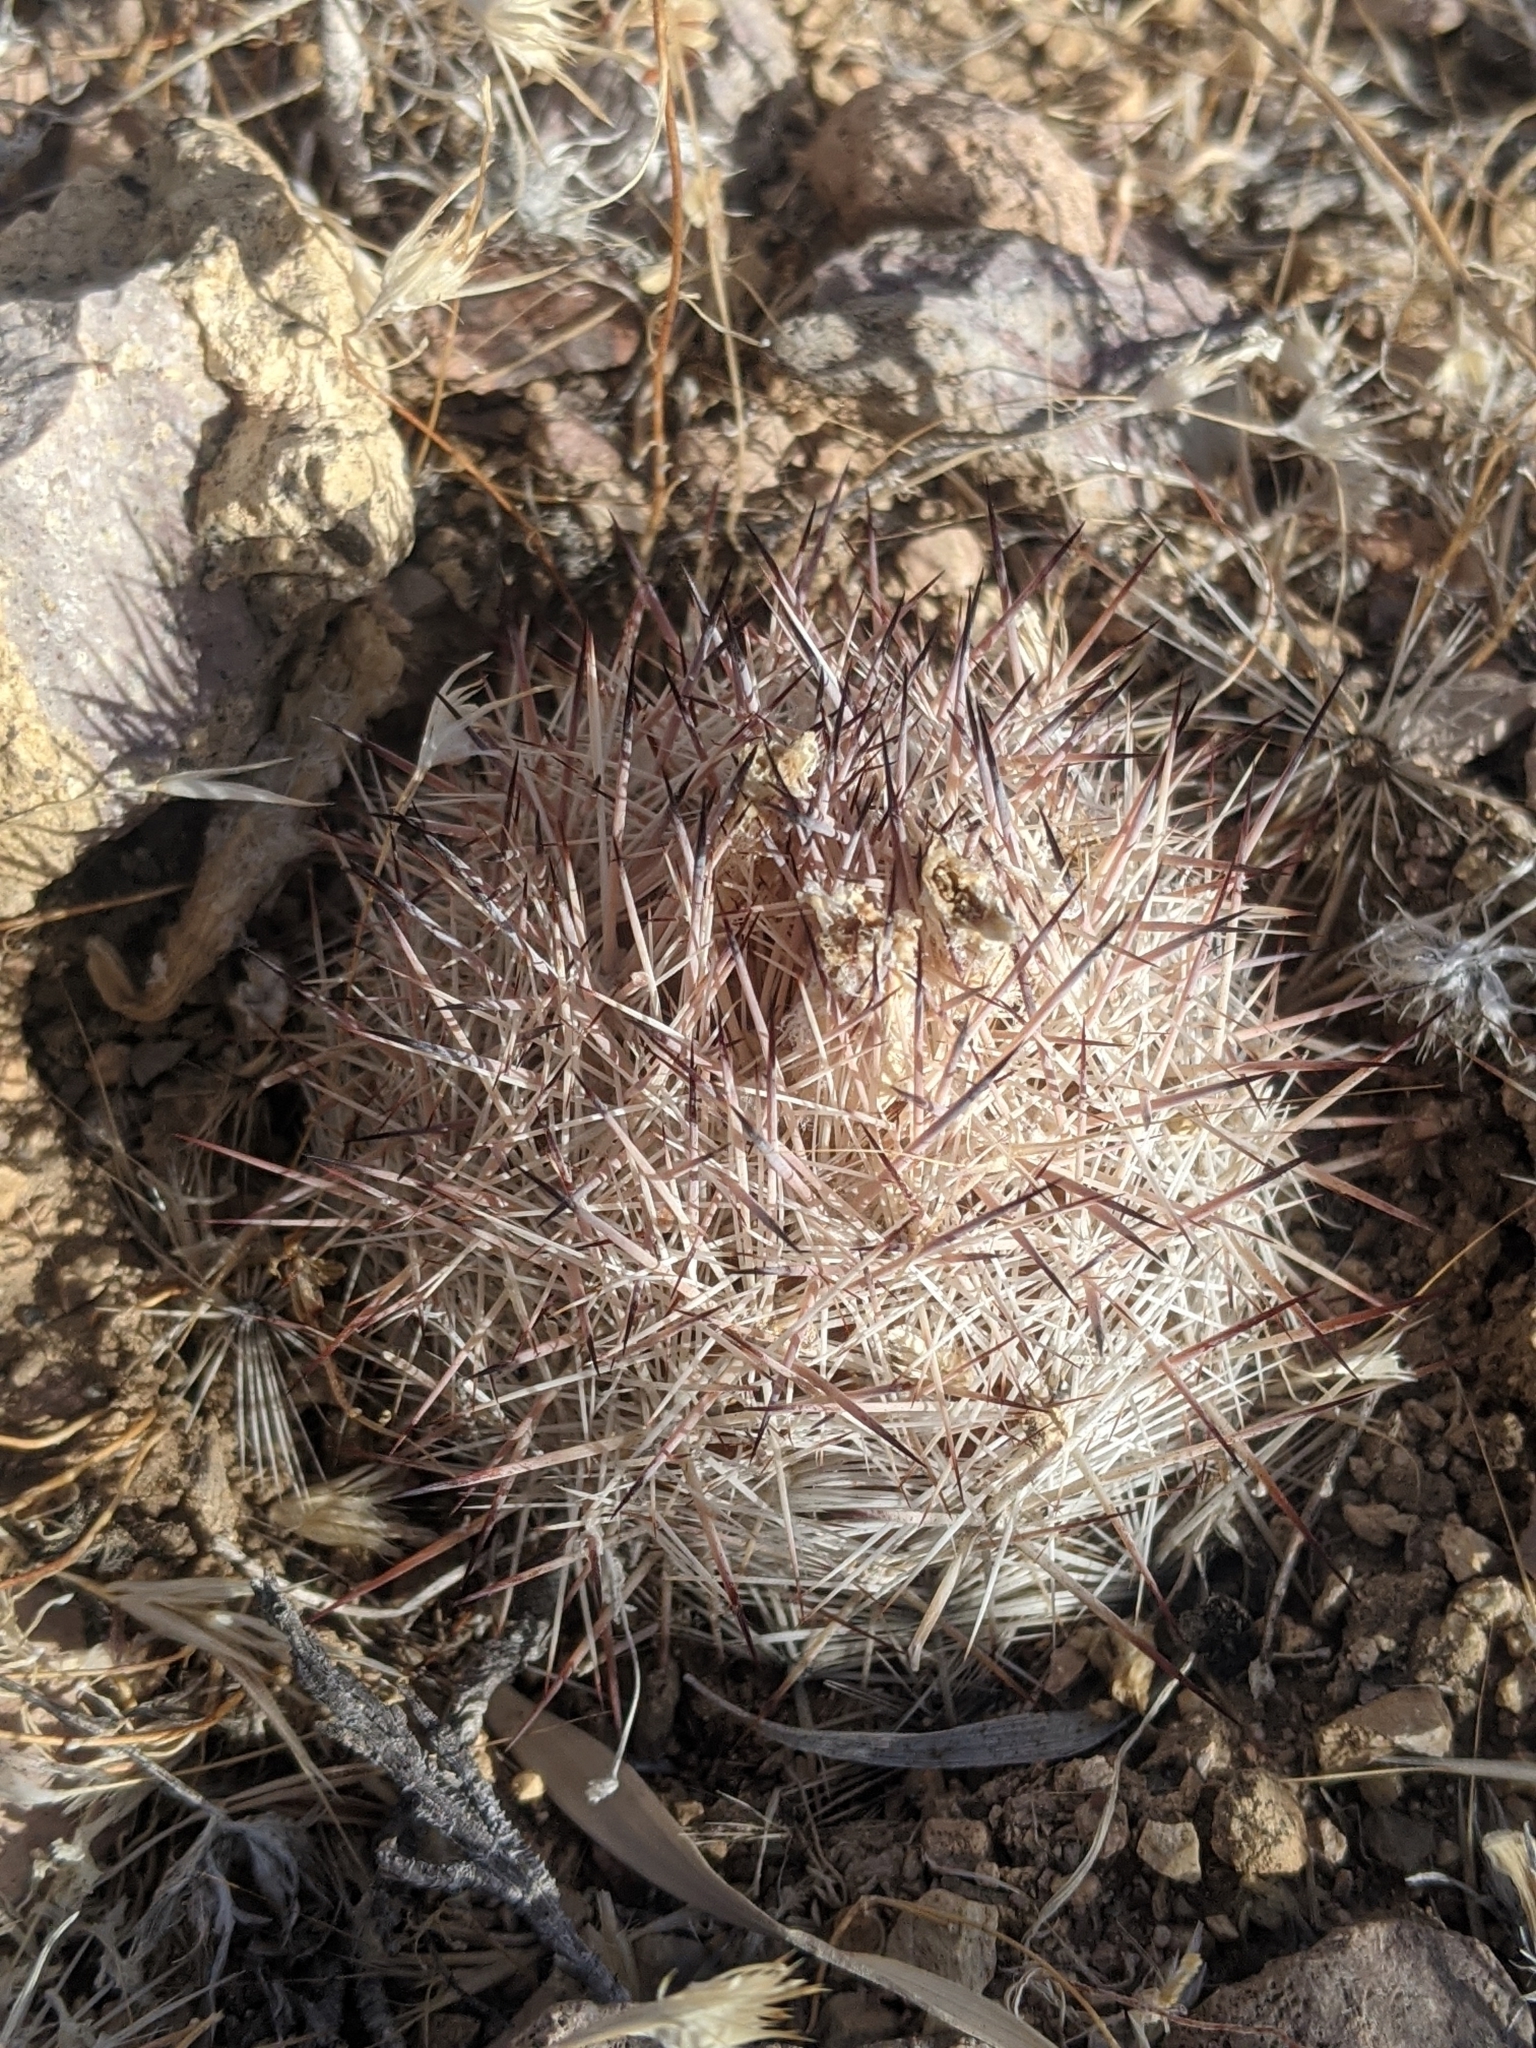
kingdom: Plantae
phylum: Tracheophyta
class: Magnoliopsida
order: Caryophyllales
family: Cactaceae
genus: Pelecyphora
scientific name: Pelecyphora dasyacantha
